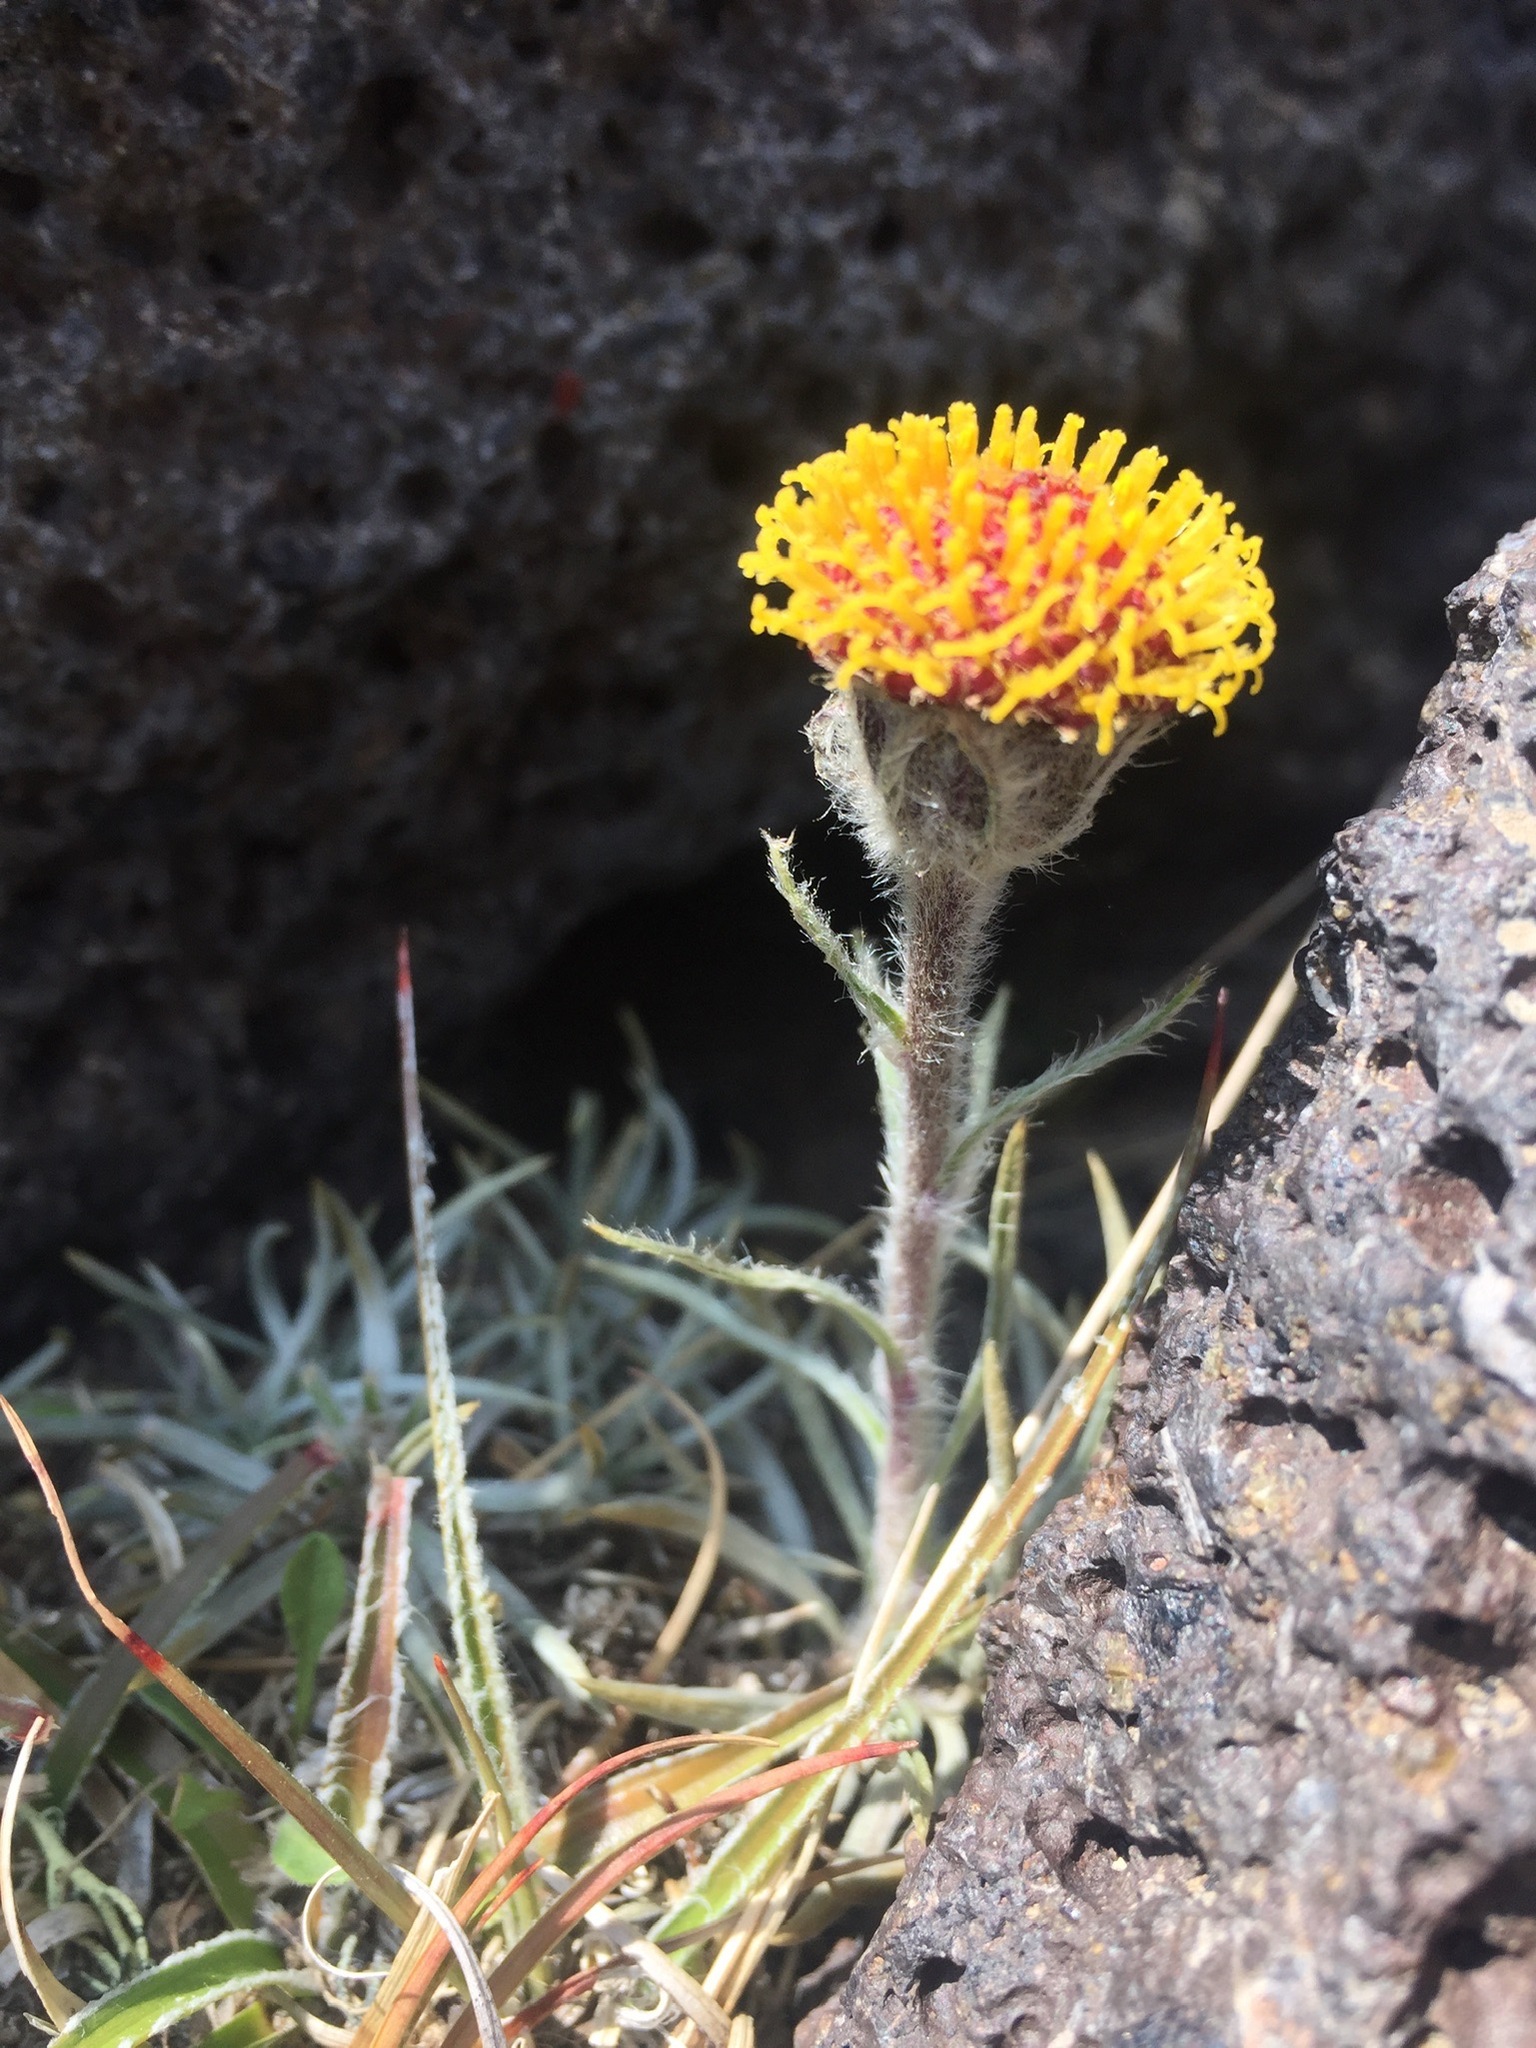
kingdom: Plantae
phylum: Tracheophyta
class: Magnoliopsida
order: Asterales
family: Asteraceae
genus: Senecio
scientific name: Senecio tunicatus
